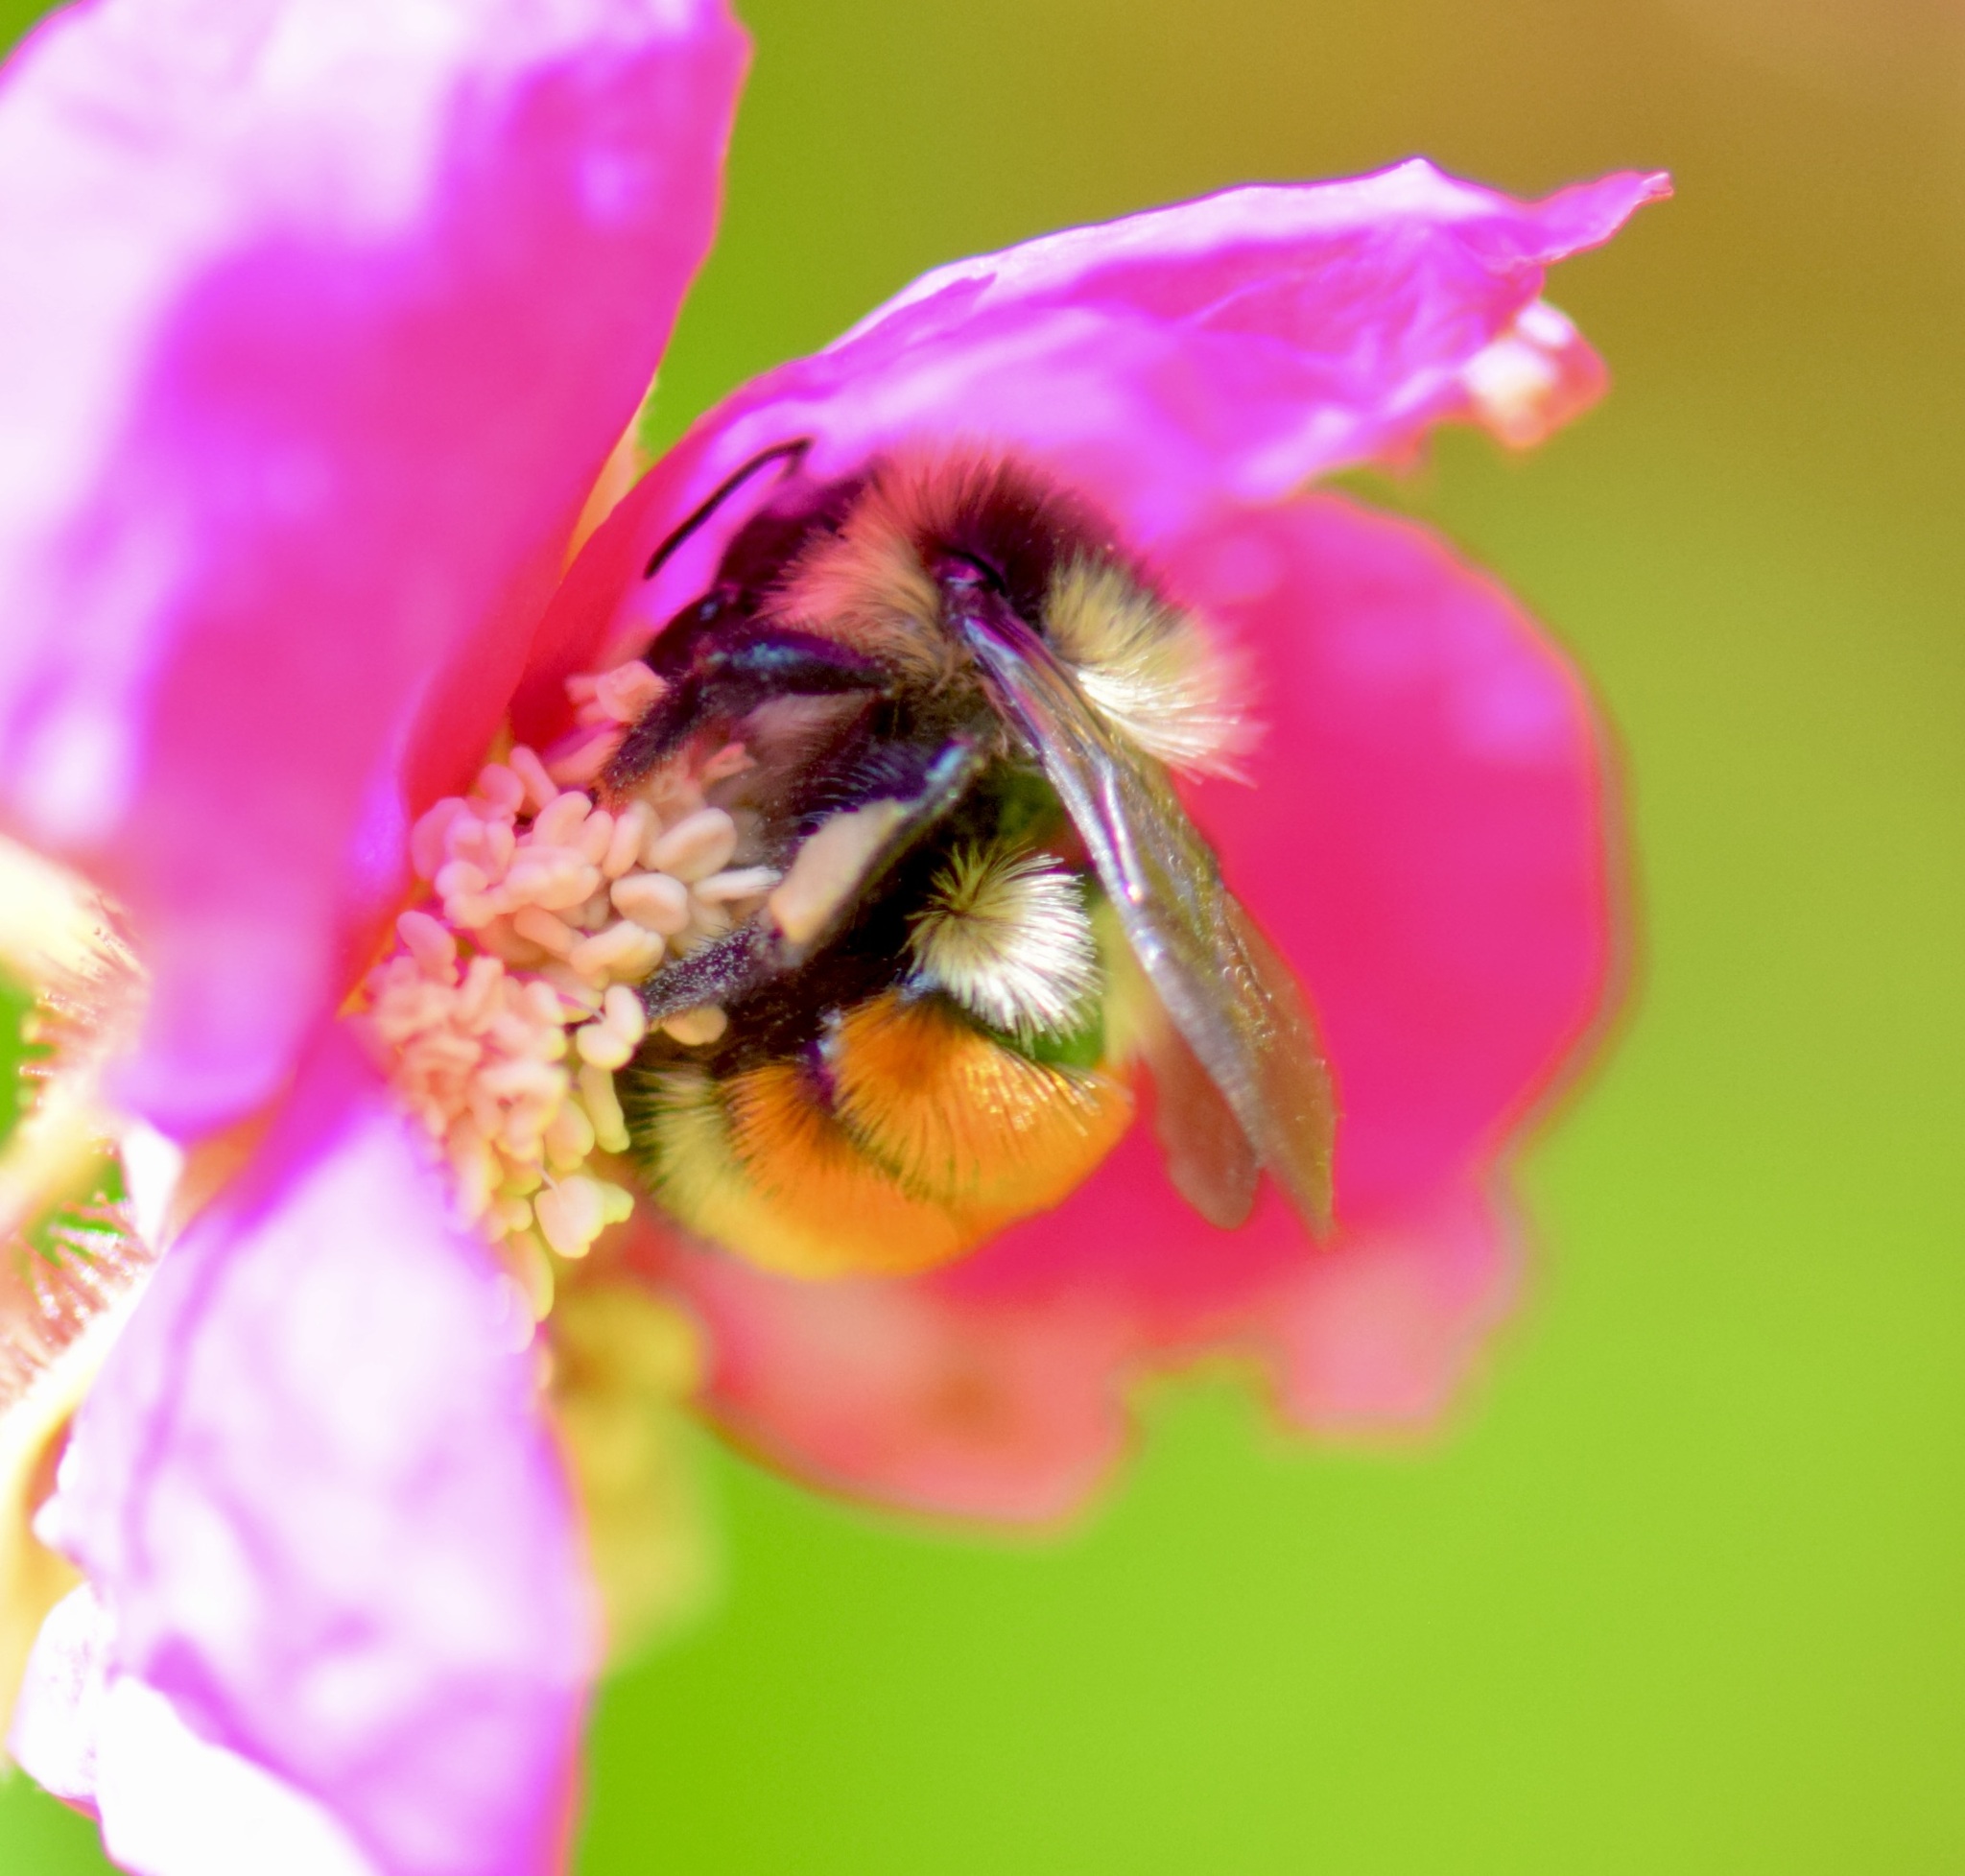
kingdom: Animalia
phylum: Arthropoda
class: Insecta
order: Hymenoptera
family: Apidae
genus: Bombus
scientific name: Bombus ternarius
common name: Tri-colored bumble bee
